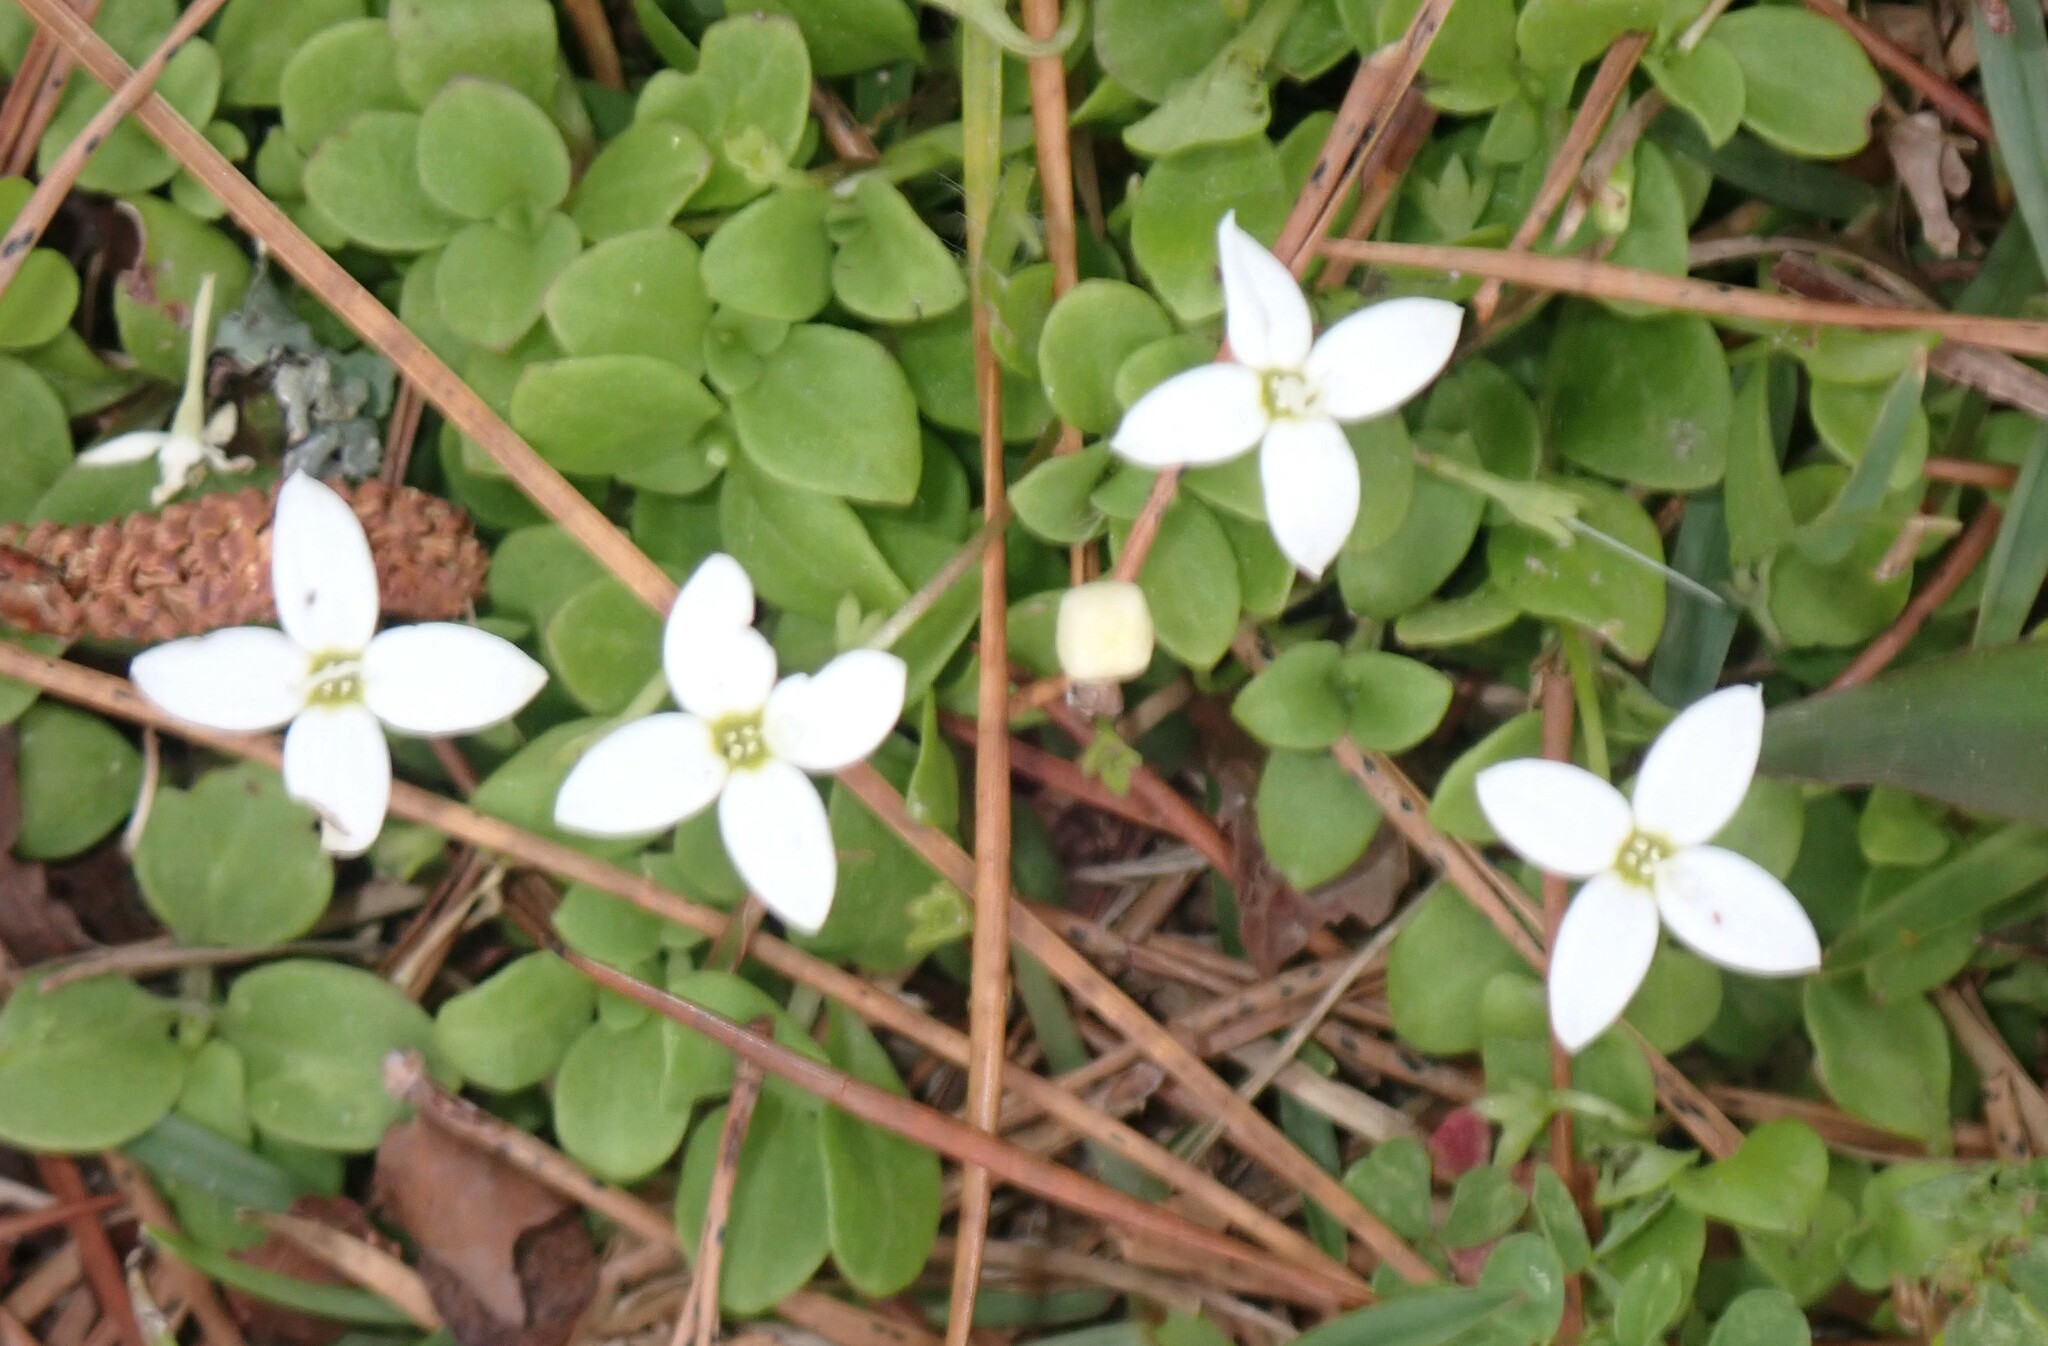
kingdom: Plantae
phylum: Tracheophyta
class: Magnoliopsida
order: Gentianales
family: Rubiaceae
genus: Houstonia
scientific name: Houstonia procumbens
